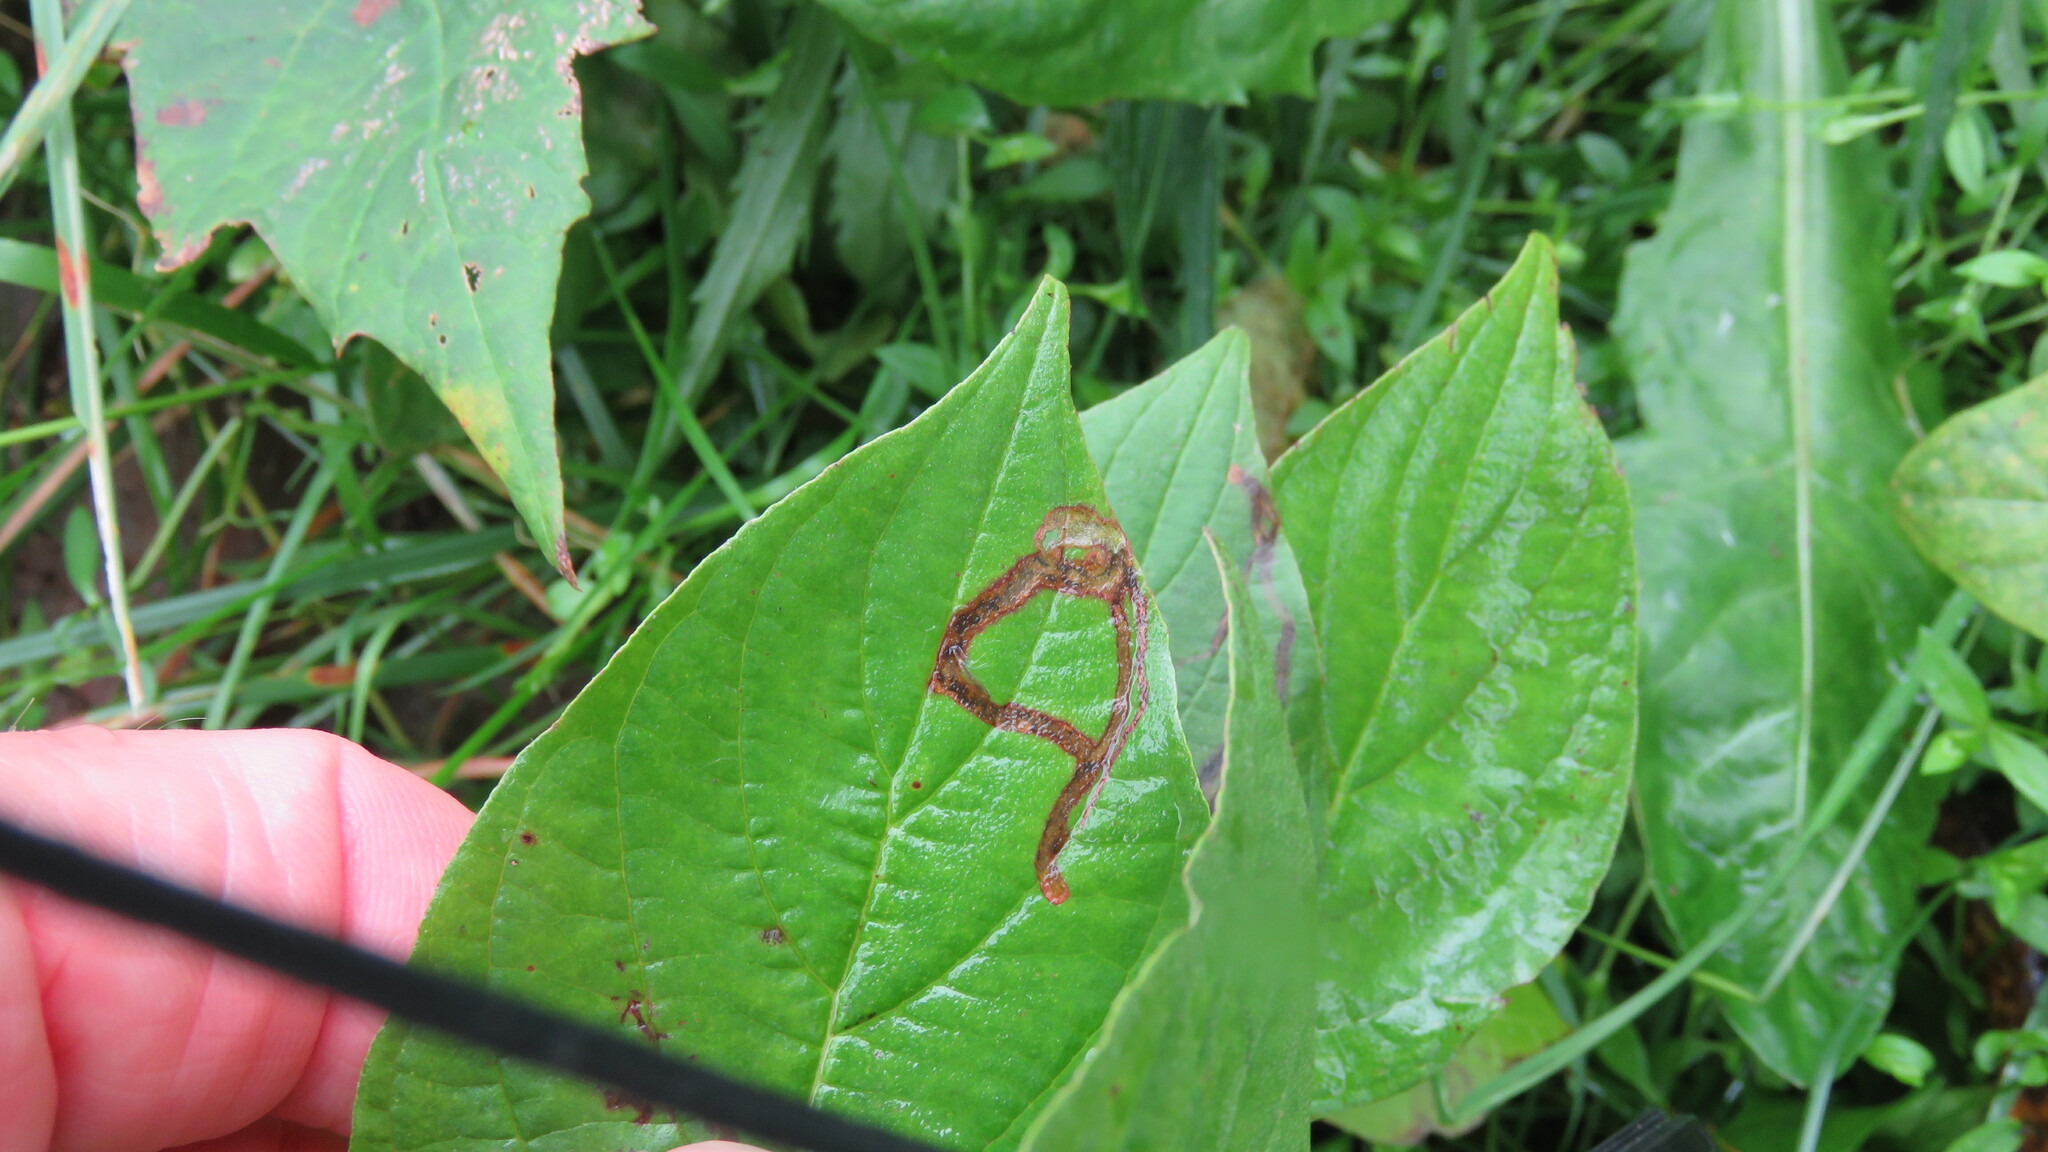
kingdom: Animalia
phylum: Arthropoda
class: Insecta
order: Diptera
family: Agromyzidae
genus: Phytomyza
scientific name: Phytomyza agromyzina
